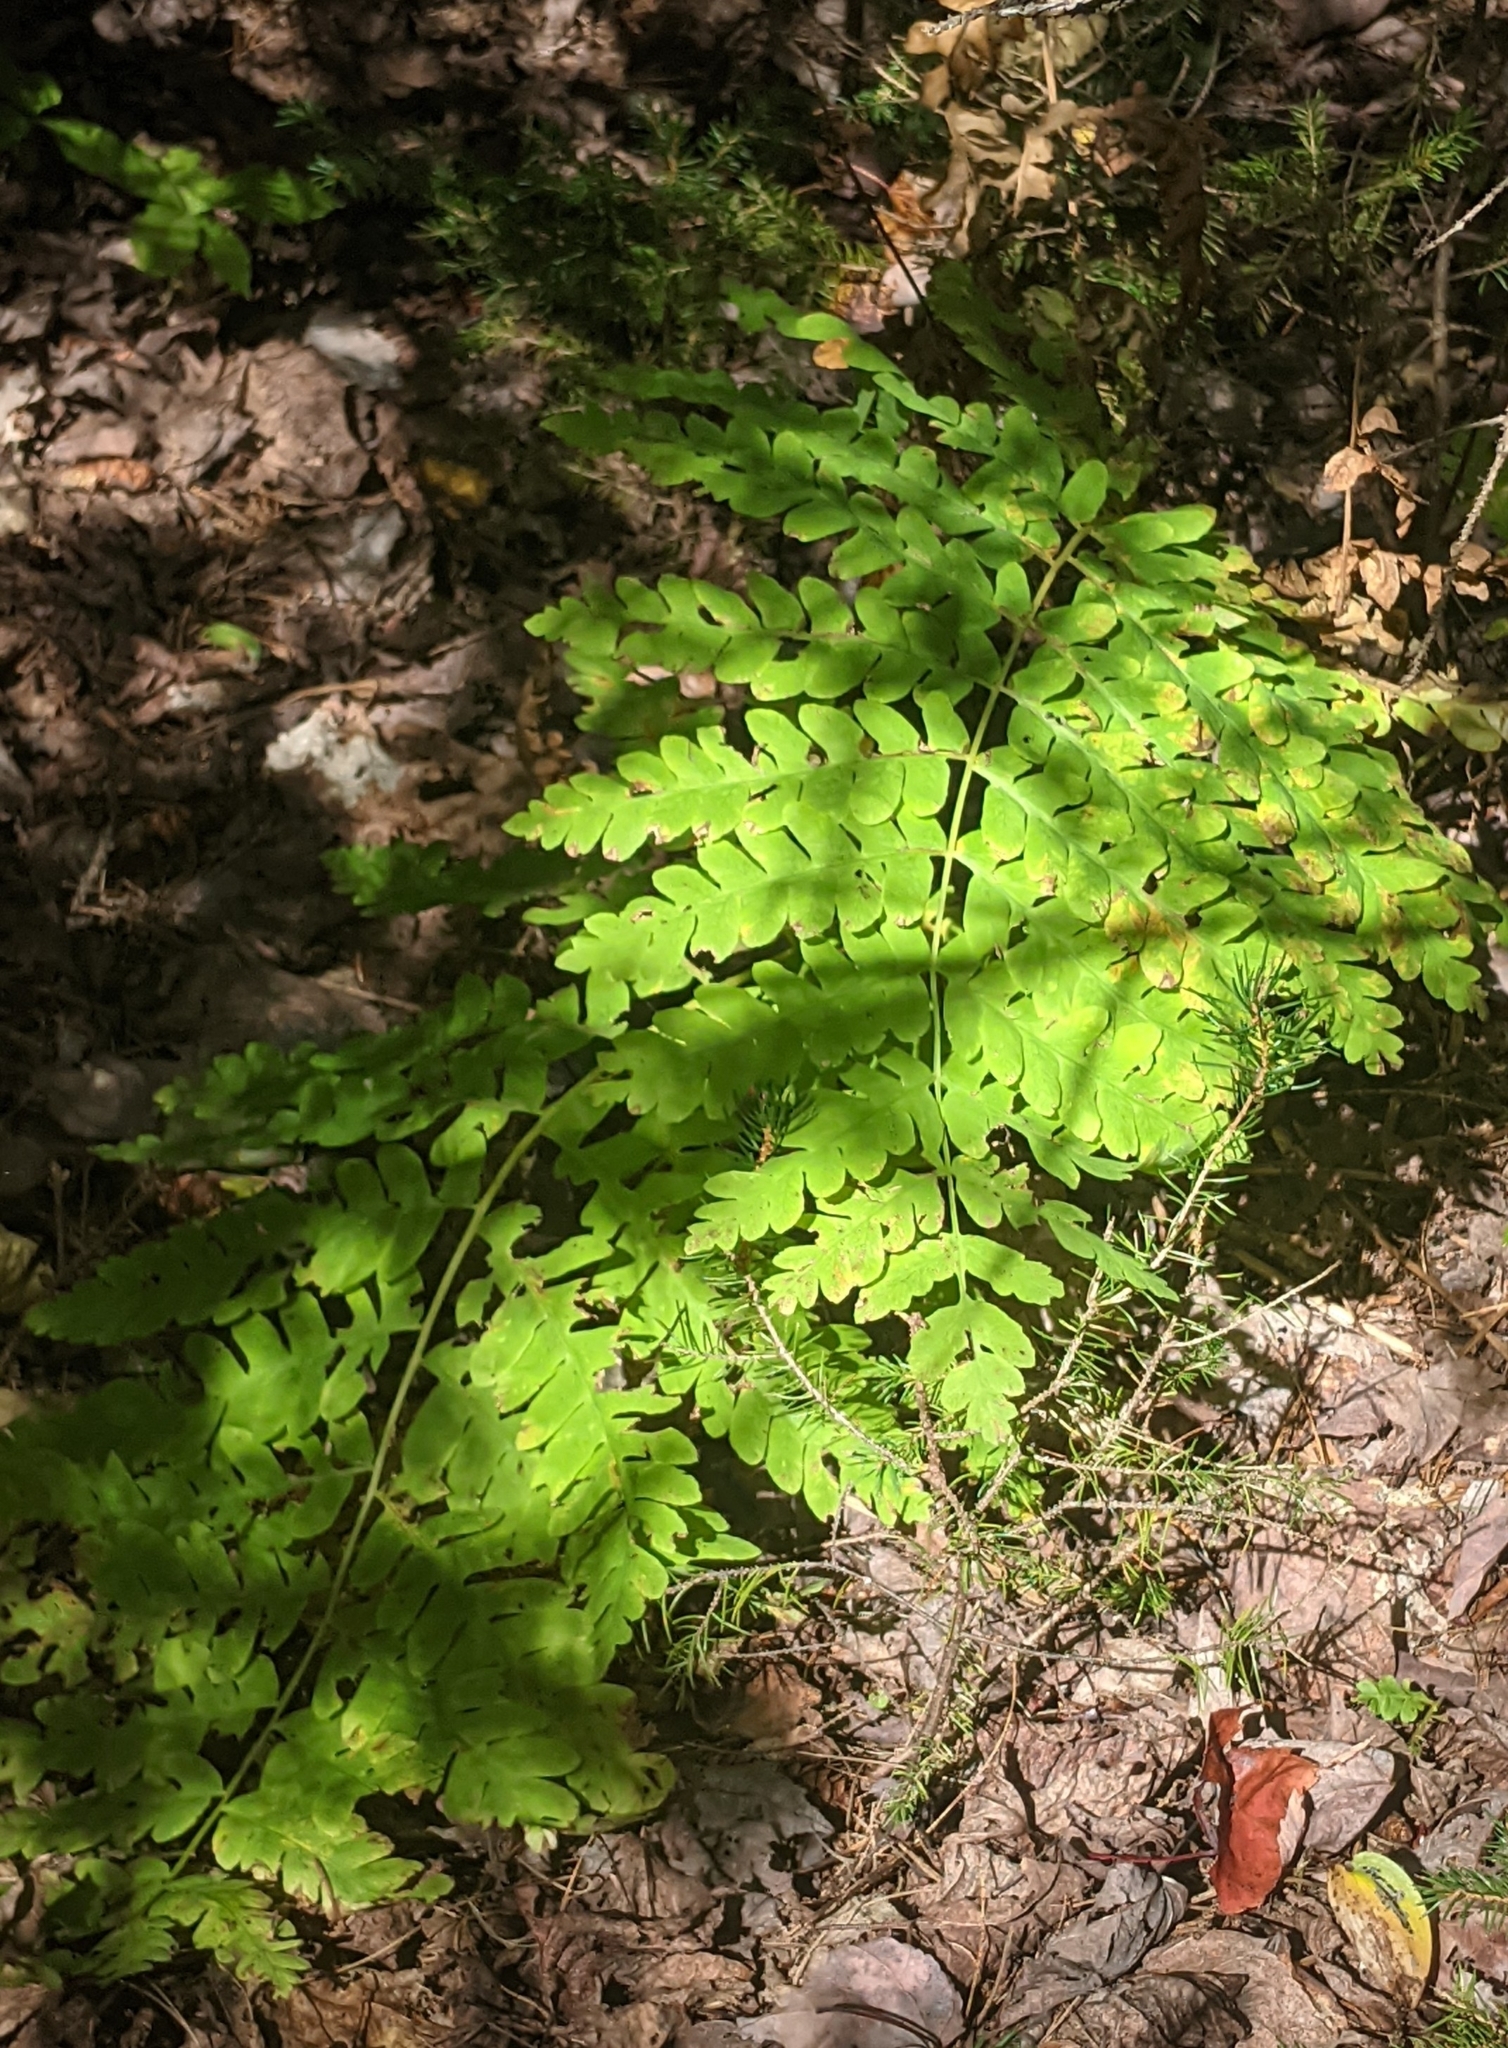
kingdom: Plantae
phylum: Tracheophyta
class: Polypodiopsida
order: Osmundales
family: Osmundaceae
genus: Claytosmunda
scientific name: Claytosmunda claytoniana
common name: Clayton's fern
